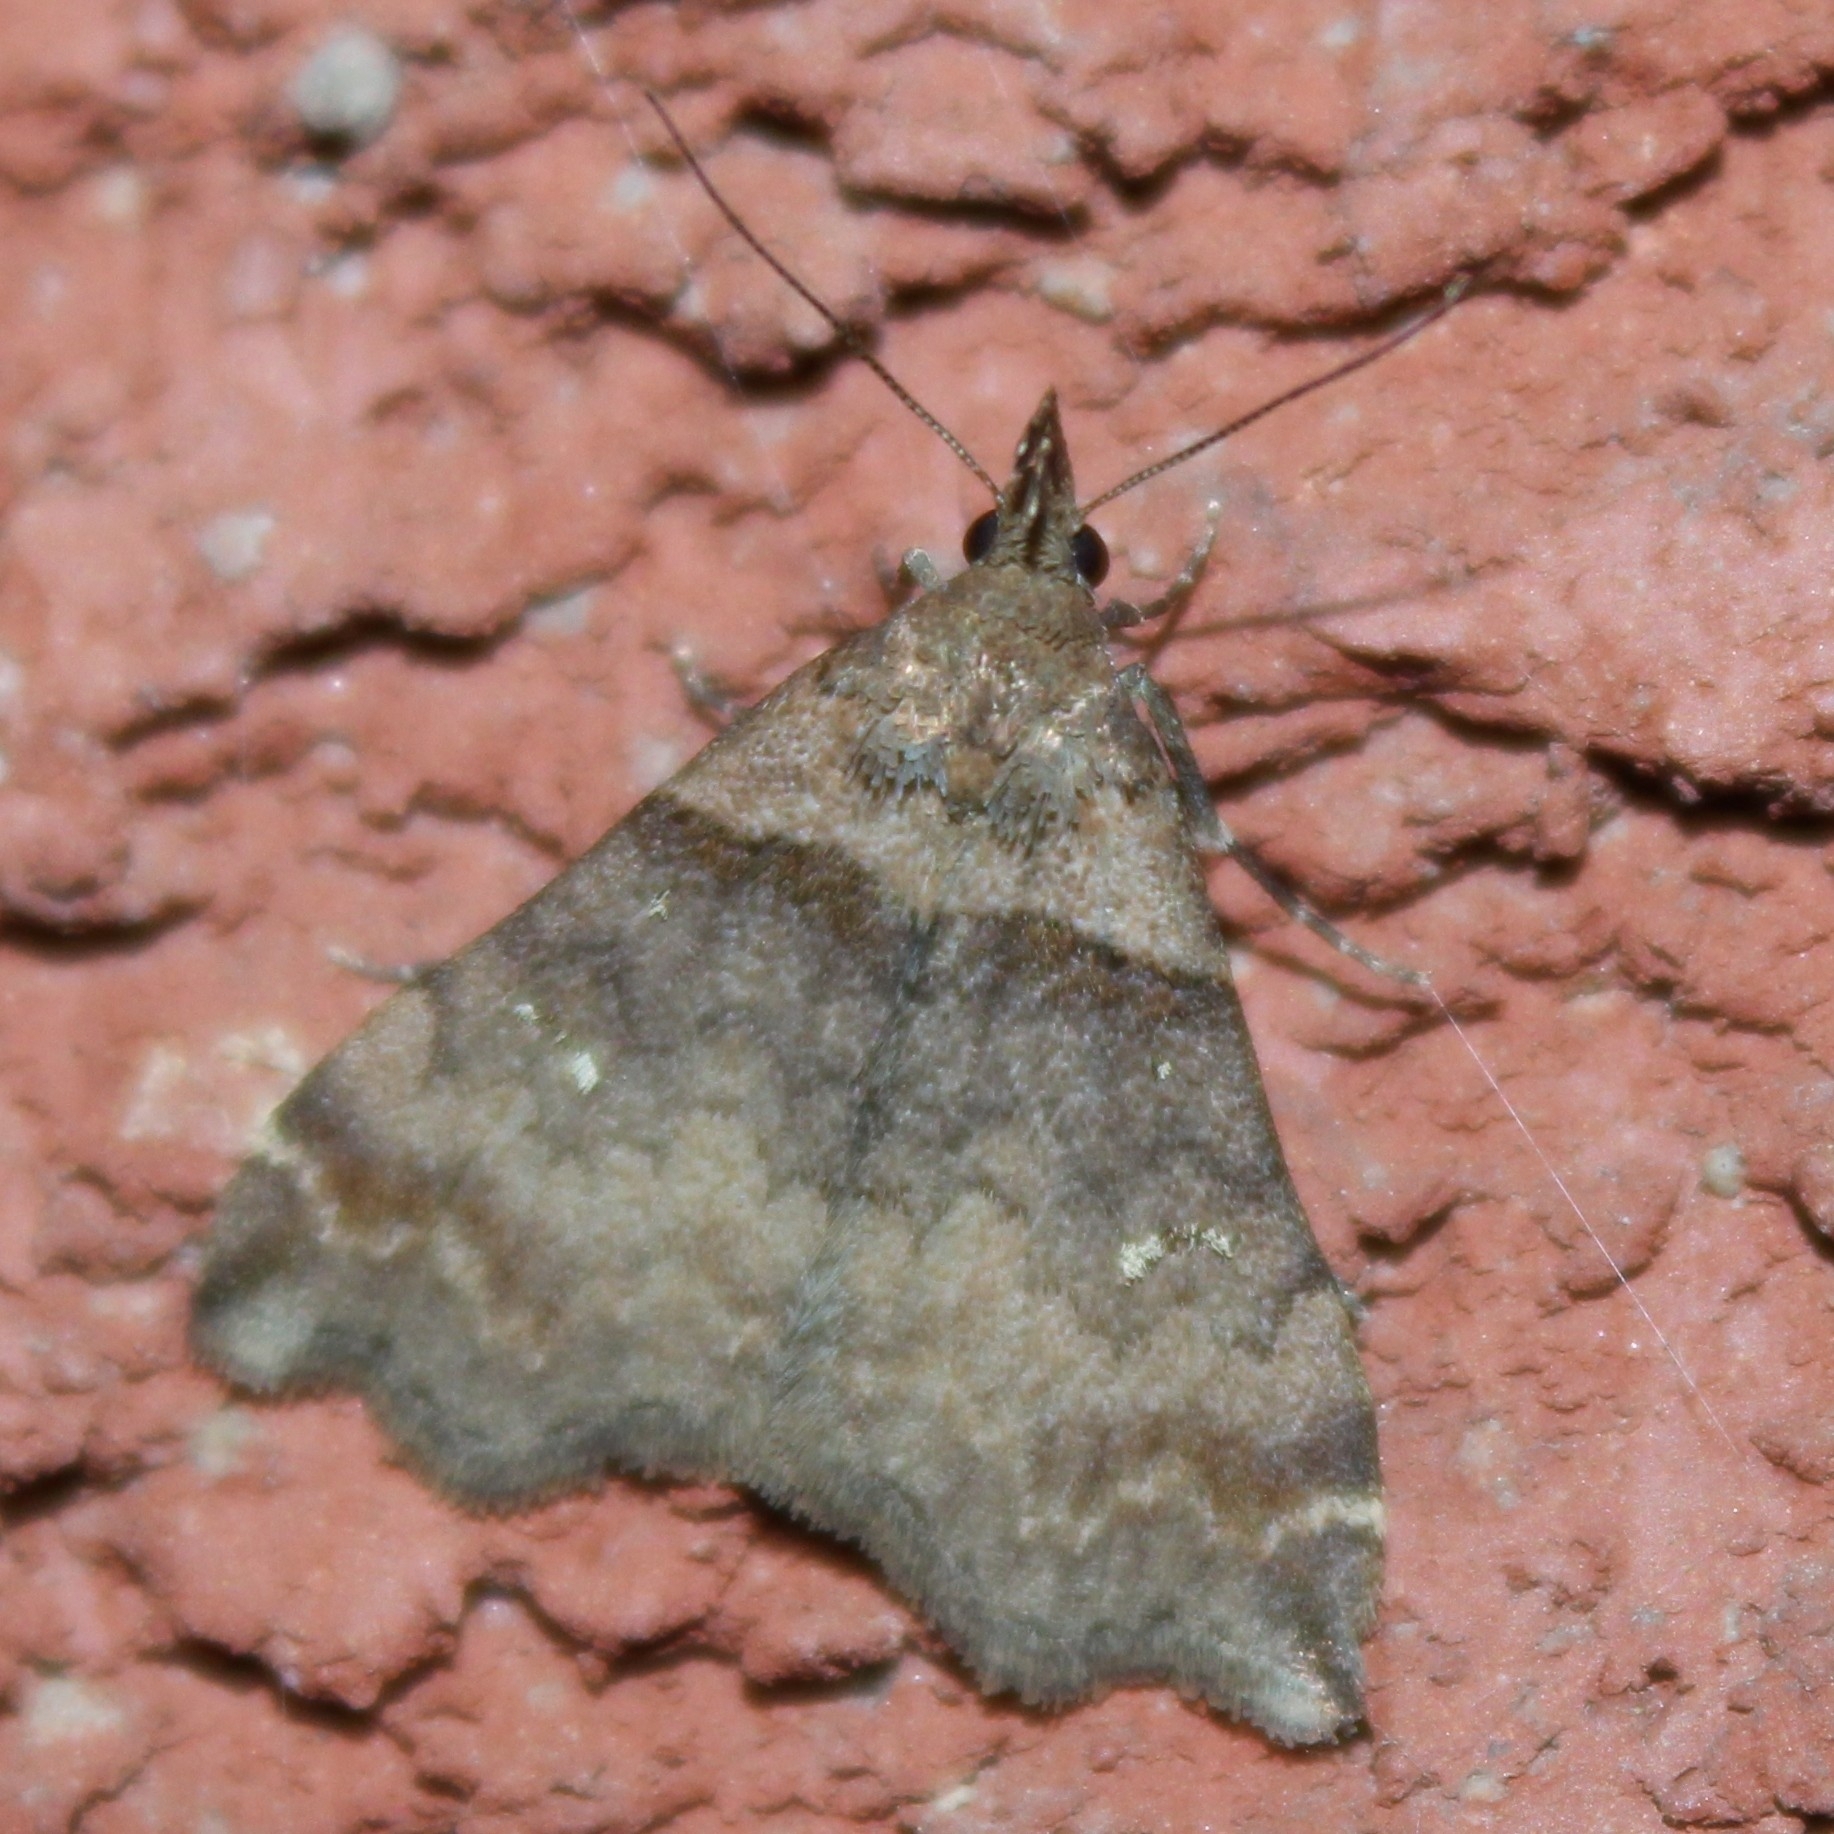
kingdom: Animalia
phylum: Arthropoda
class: Insecta
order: Lepidoptera
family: Erebidae
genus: Lascoria
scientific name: Lascoria ambigualis
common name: Ambiguous moth
